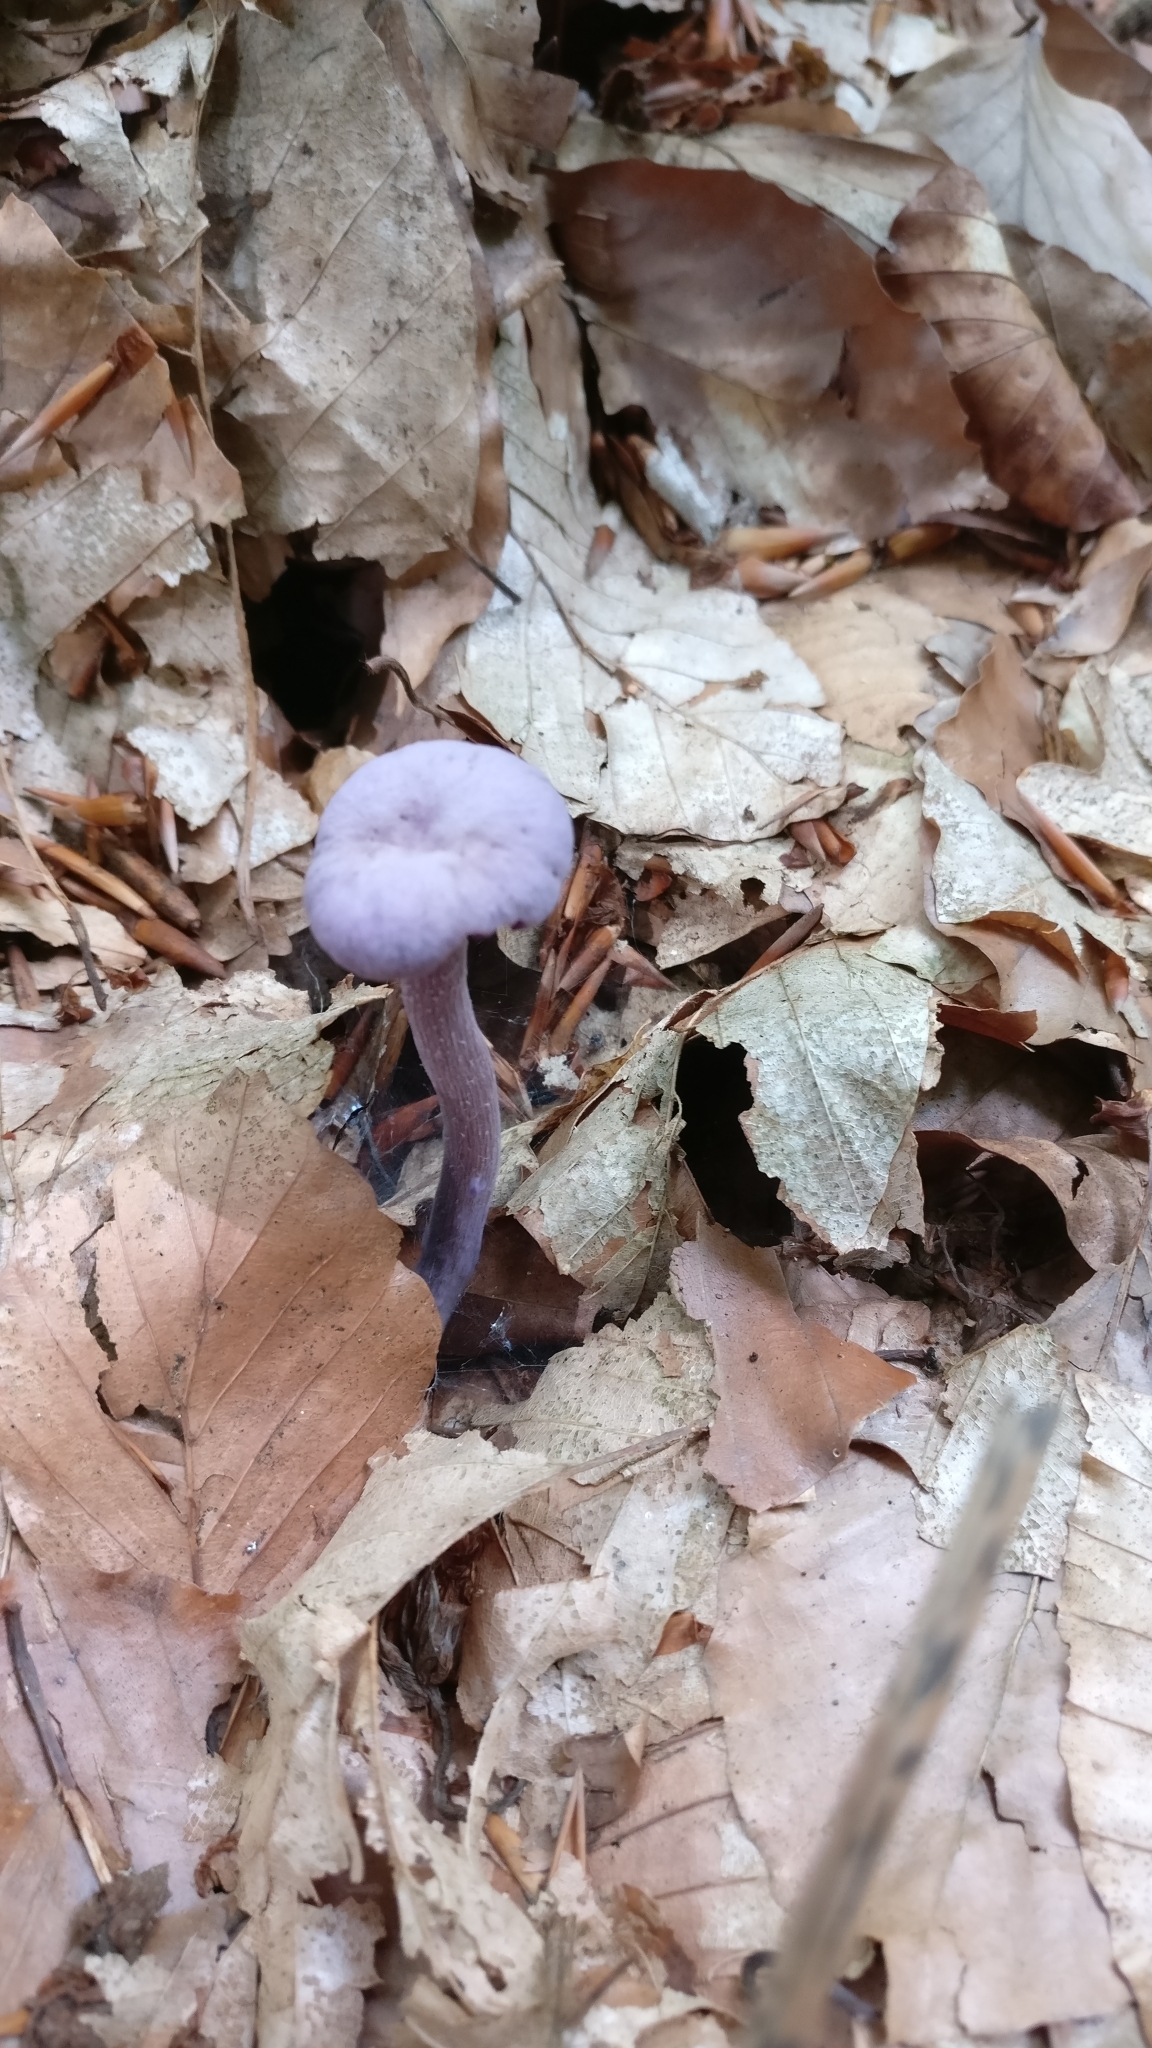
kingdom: Fungi
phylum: Basidiomycota
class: Agaricomycetes
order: Agaricales
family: Hydnangiaceae
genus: Laccaria
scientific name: Laccaria amethystina
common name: Amethyst deceiver
